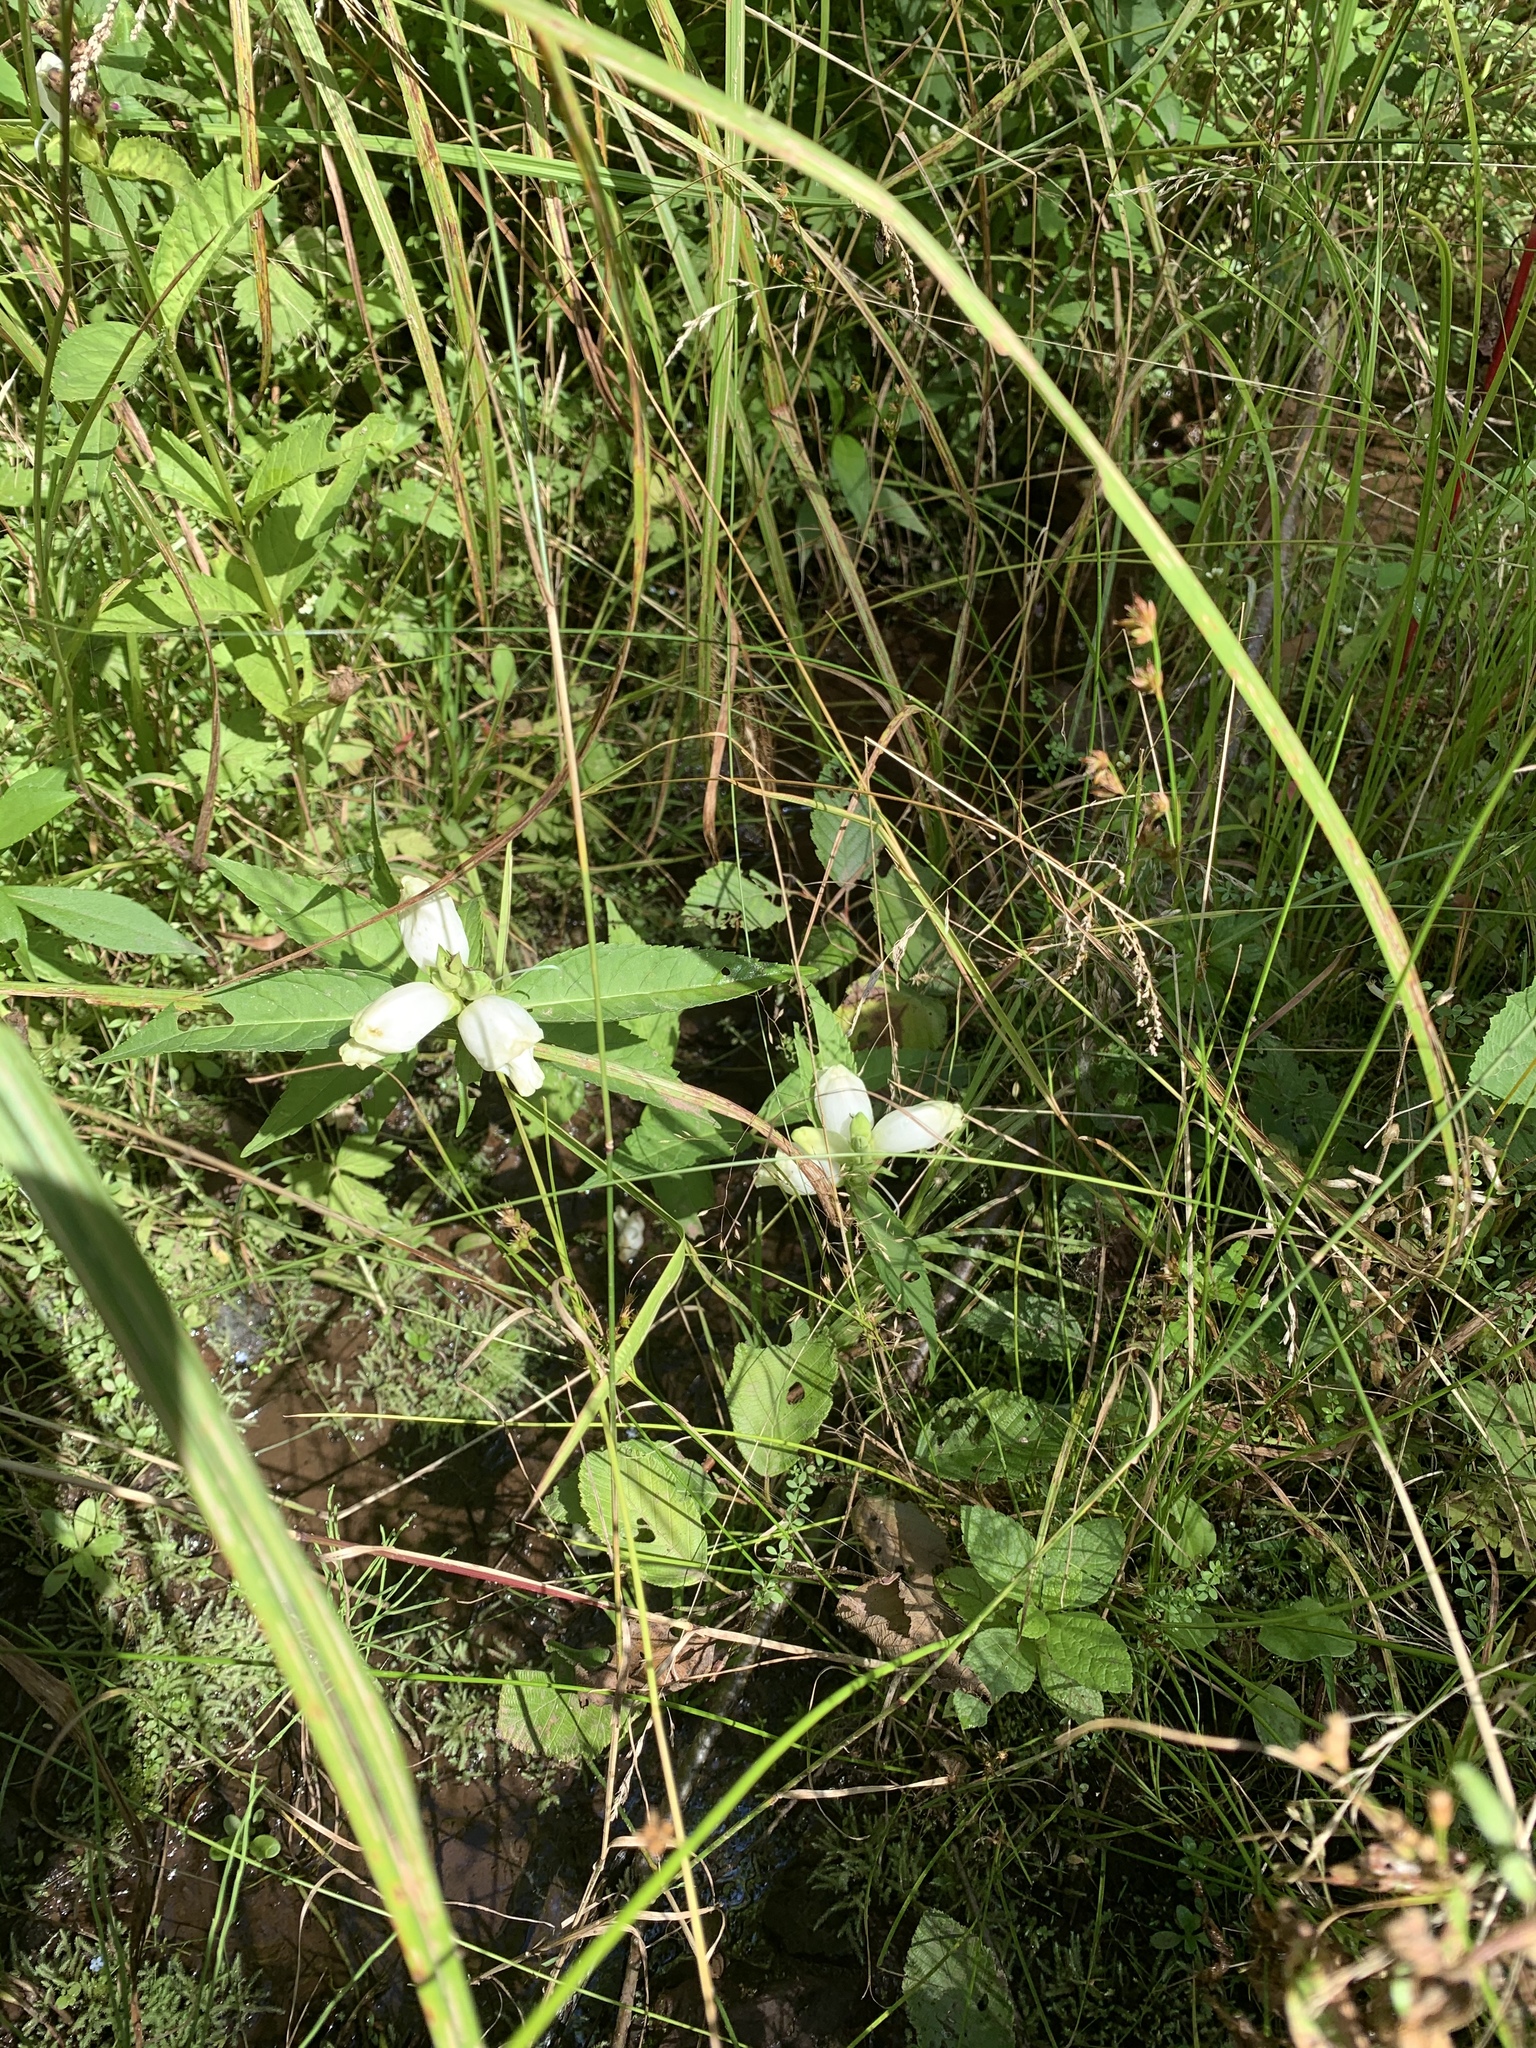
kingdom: Plantae
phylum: Tracheophyta
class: Magnoliopsida
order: Lamiales
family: Plantaginaceae
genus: Chelone
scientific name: Chelone glabra
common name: Snakehead
